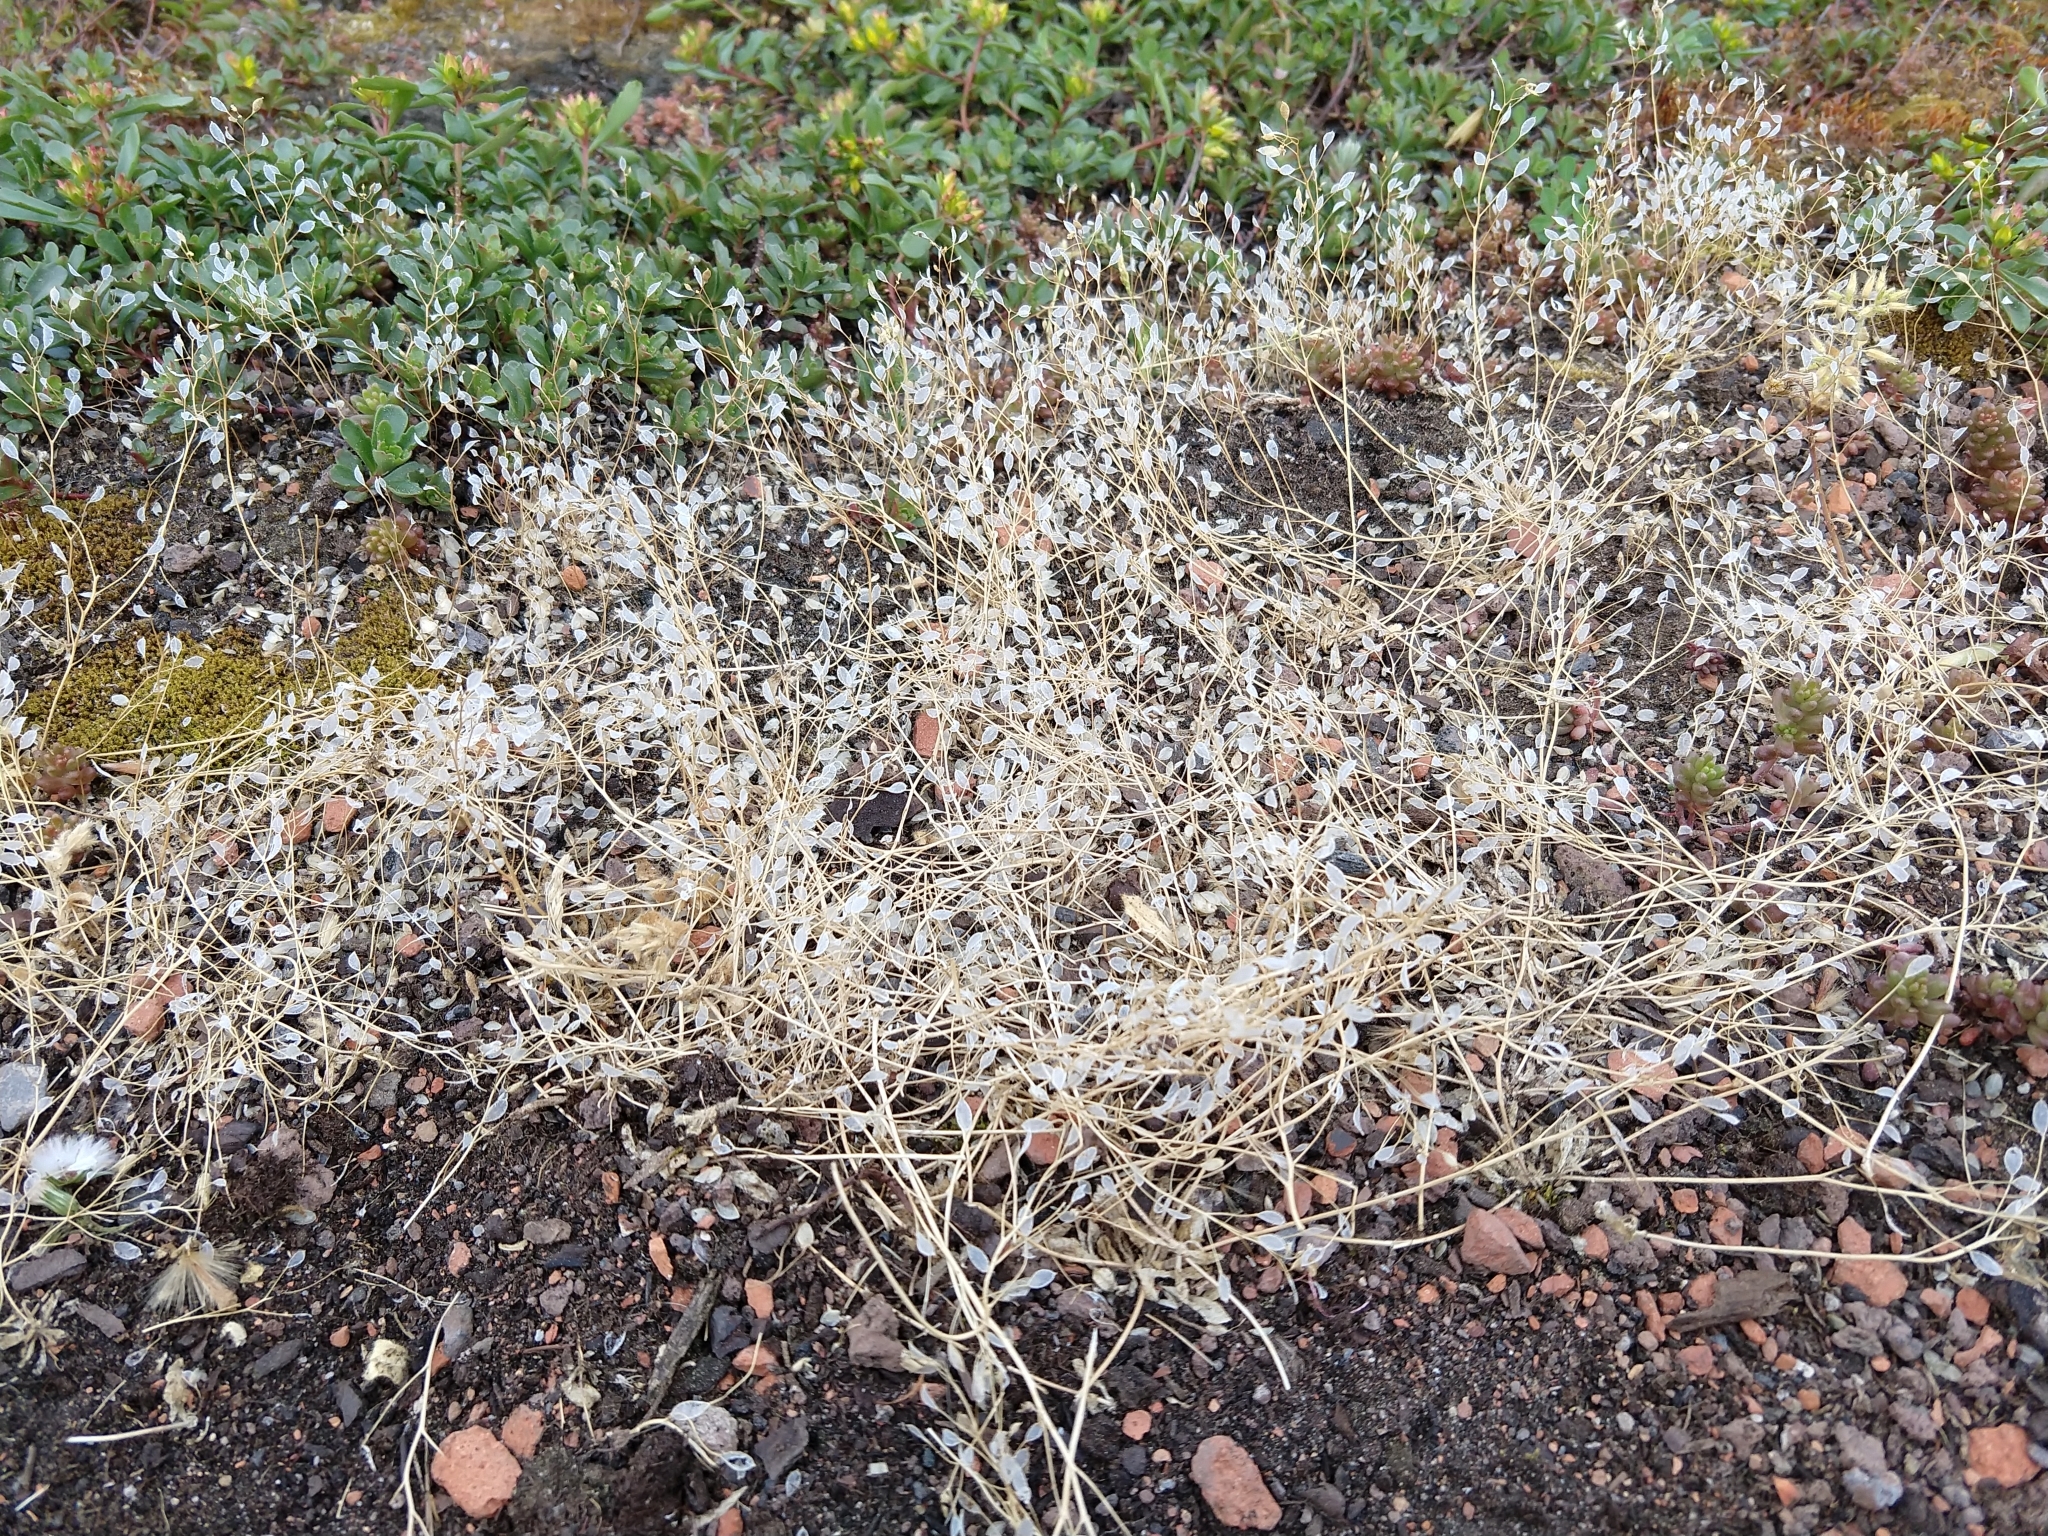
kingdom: Plantae
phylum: Tracheophyta
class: Magnoliopsida
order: Brassicales
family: Brassicaceae
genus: Draba
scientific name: Draba verna
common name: Spring draba
